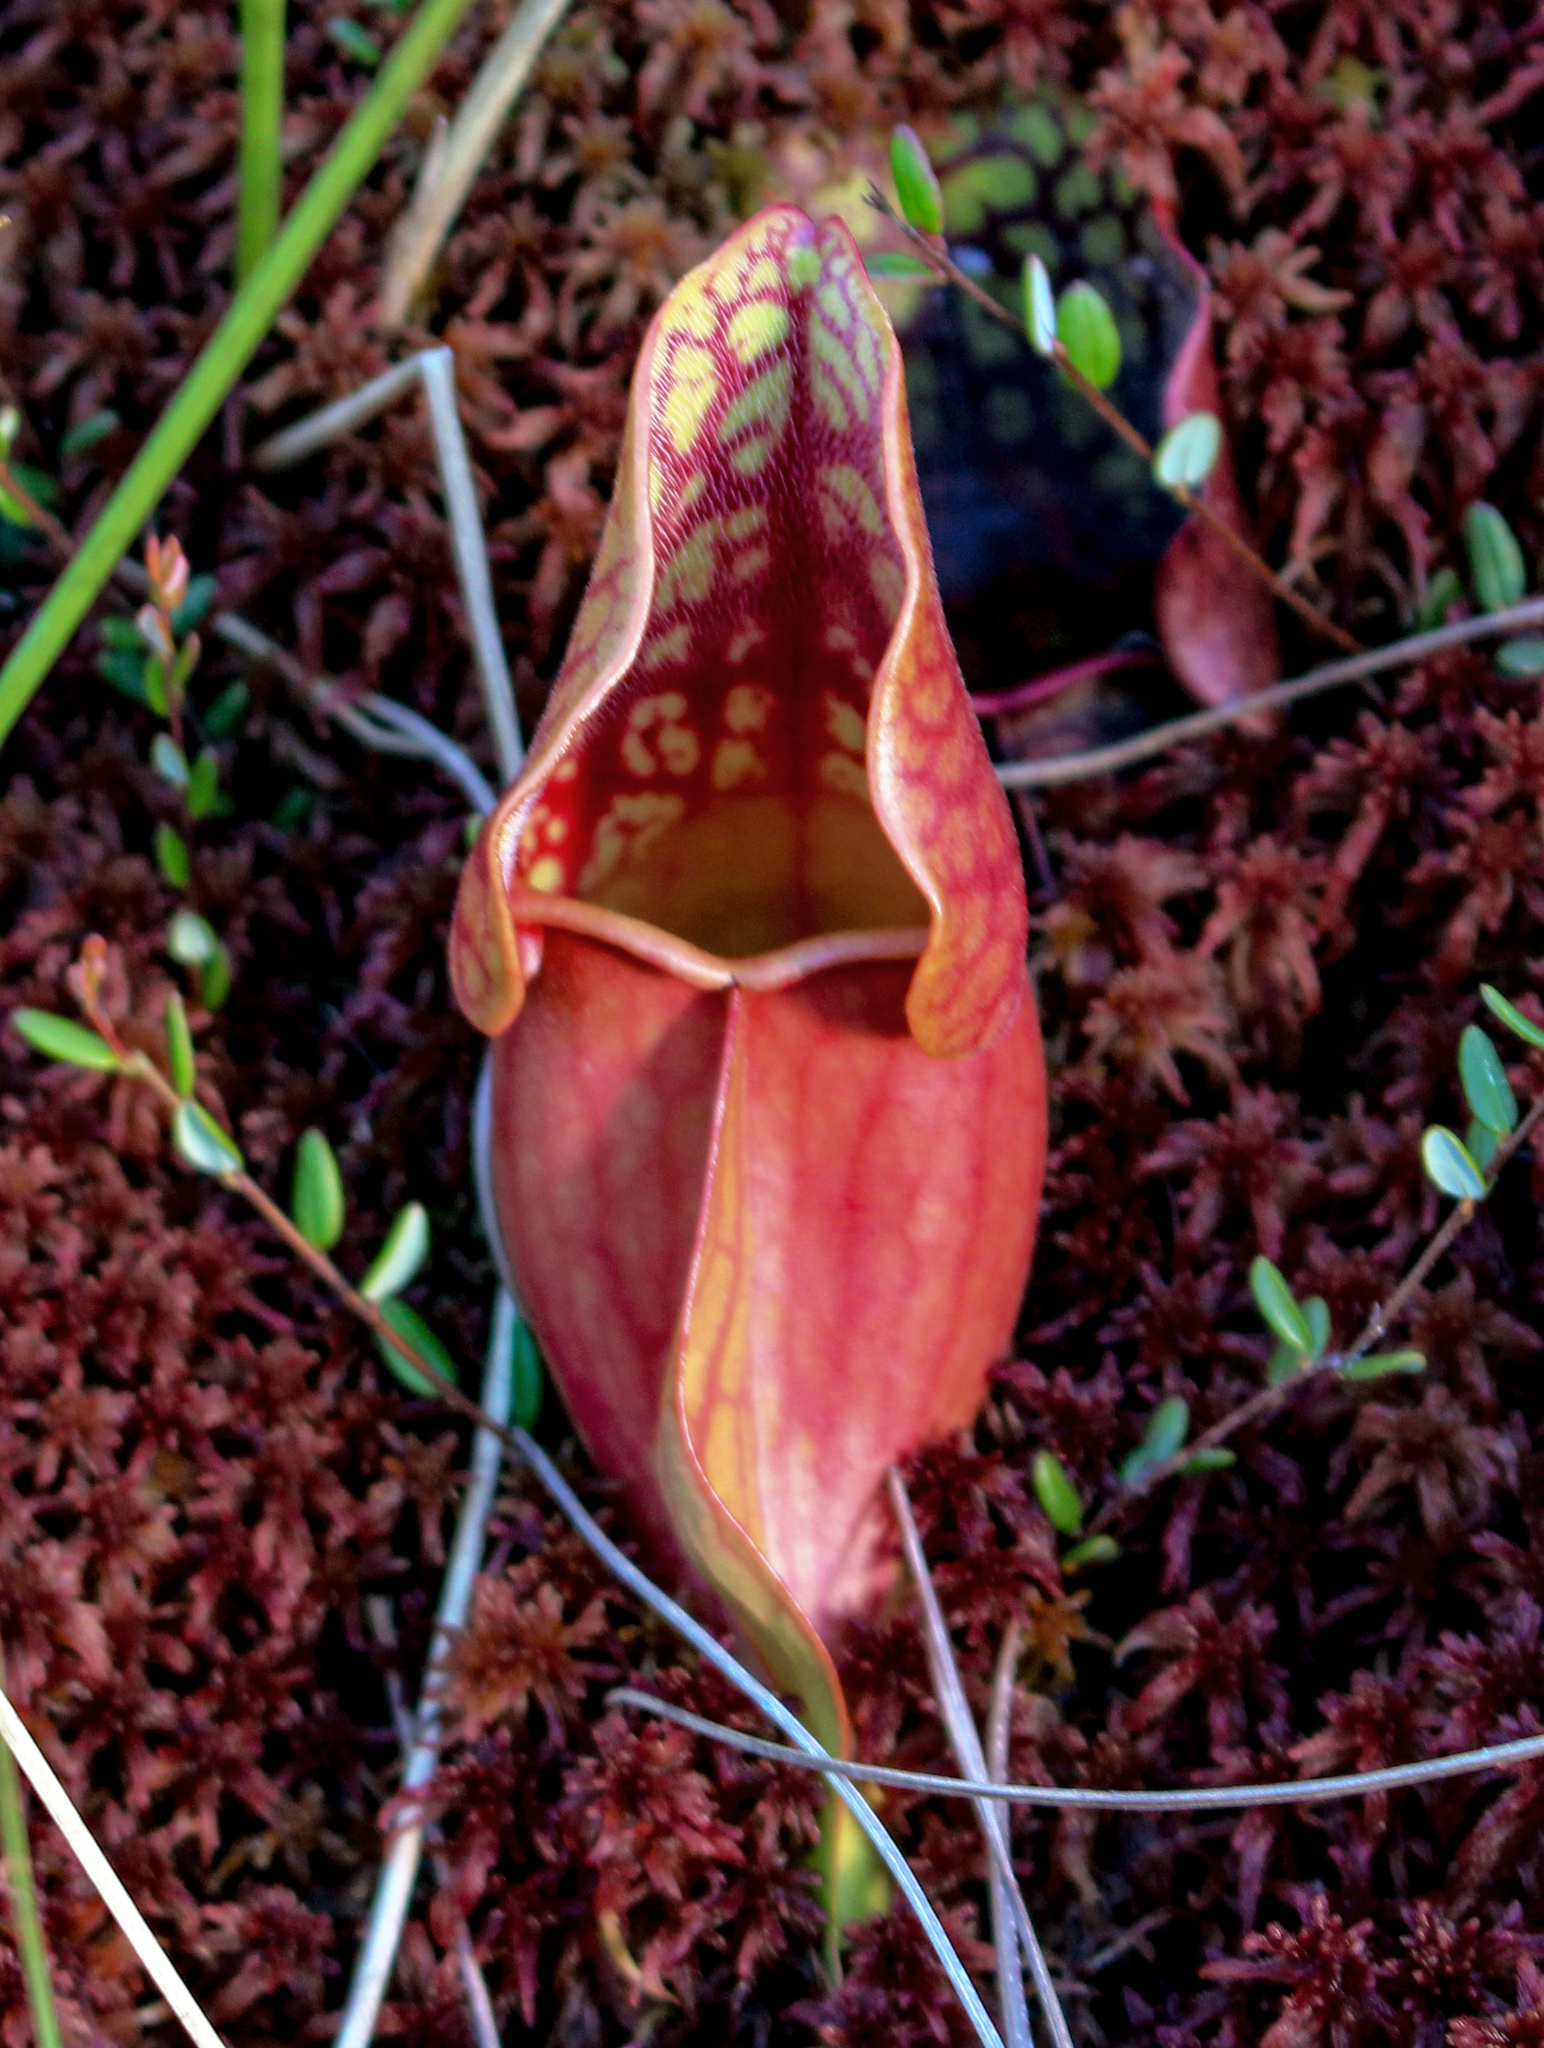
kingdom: Plantae
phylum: Tracheophyta
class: Magnoliopsida
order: Ericales
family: Sarraceniaceae
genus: Sarracenia
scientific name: Sarracenia purpurea
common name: Pitcherplant
